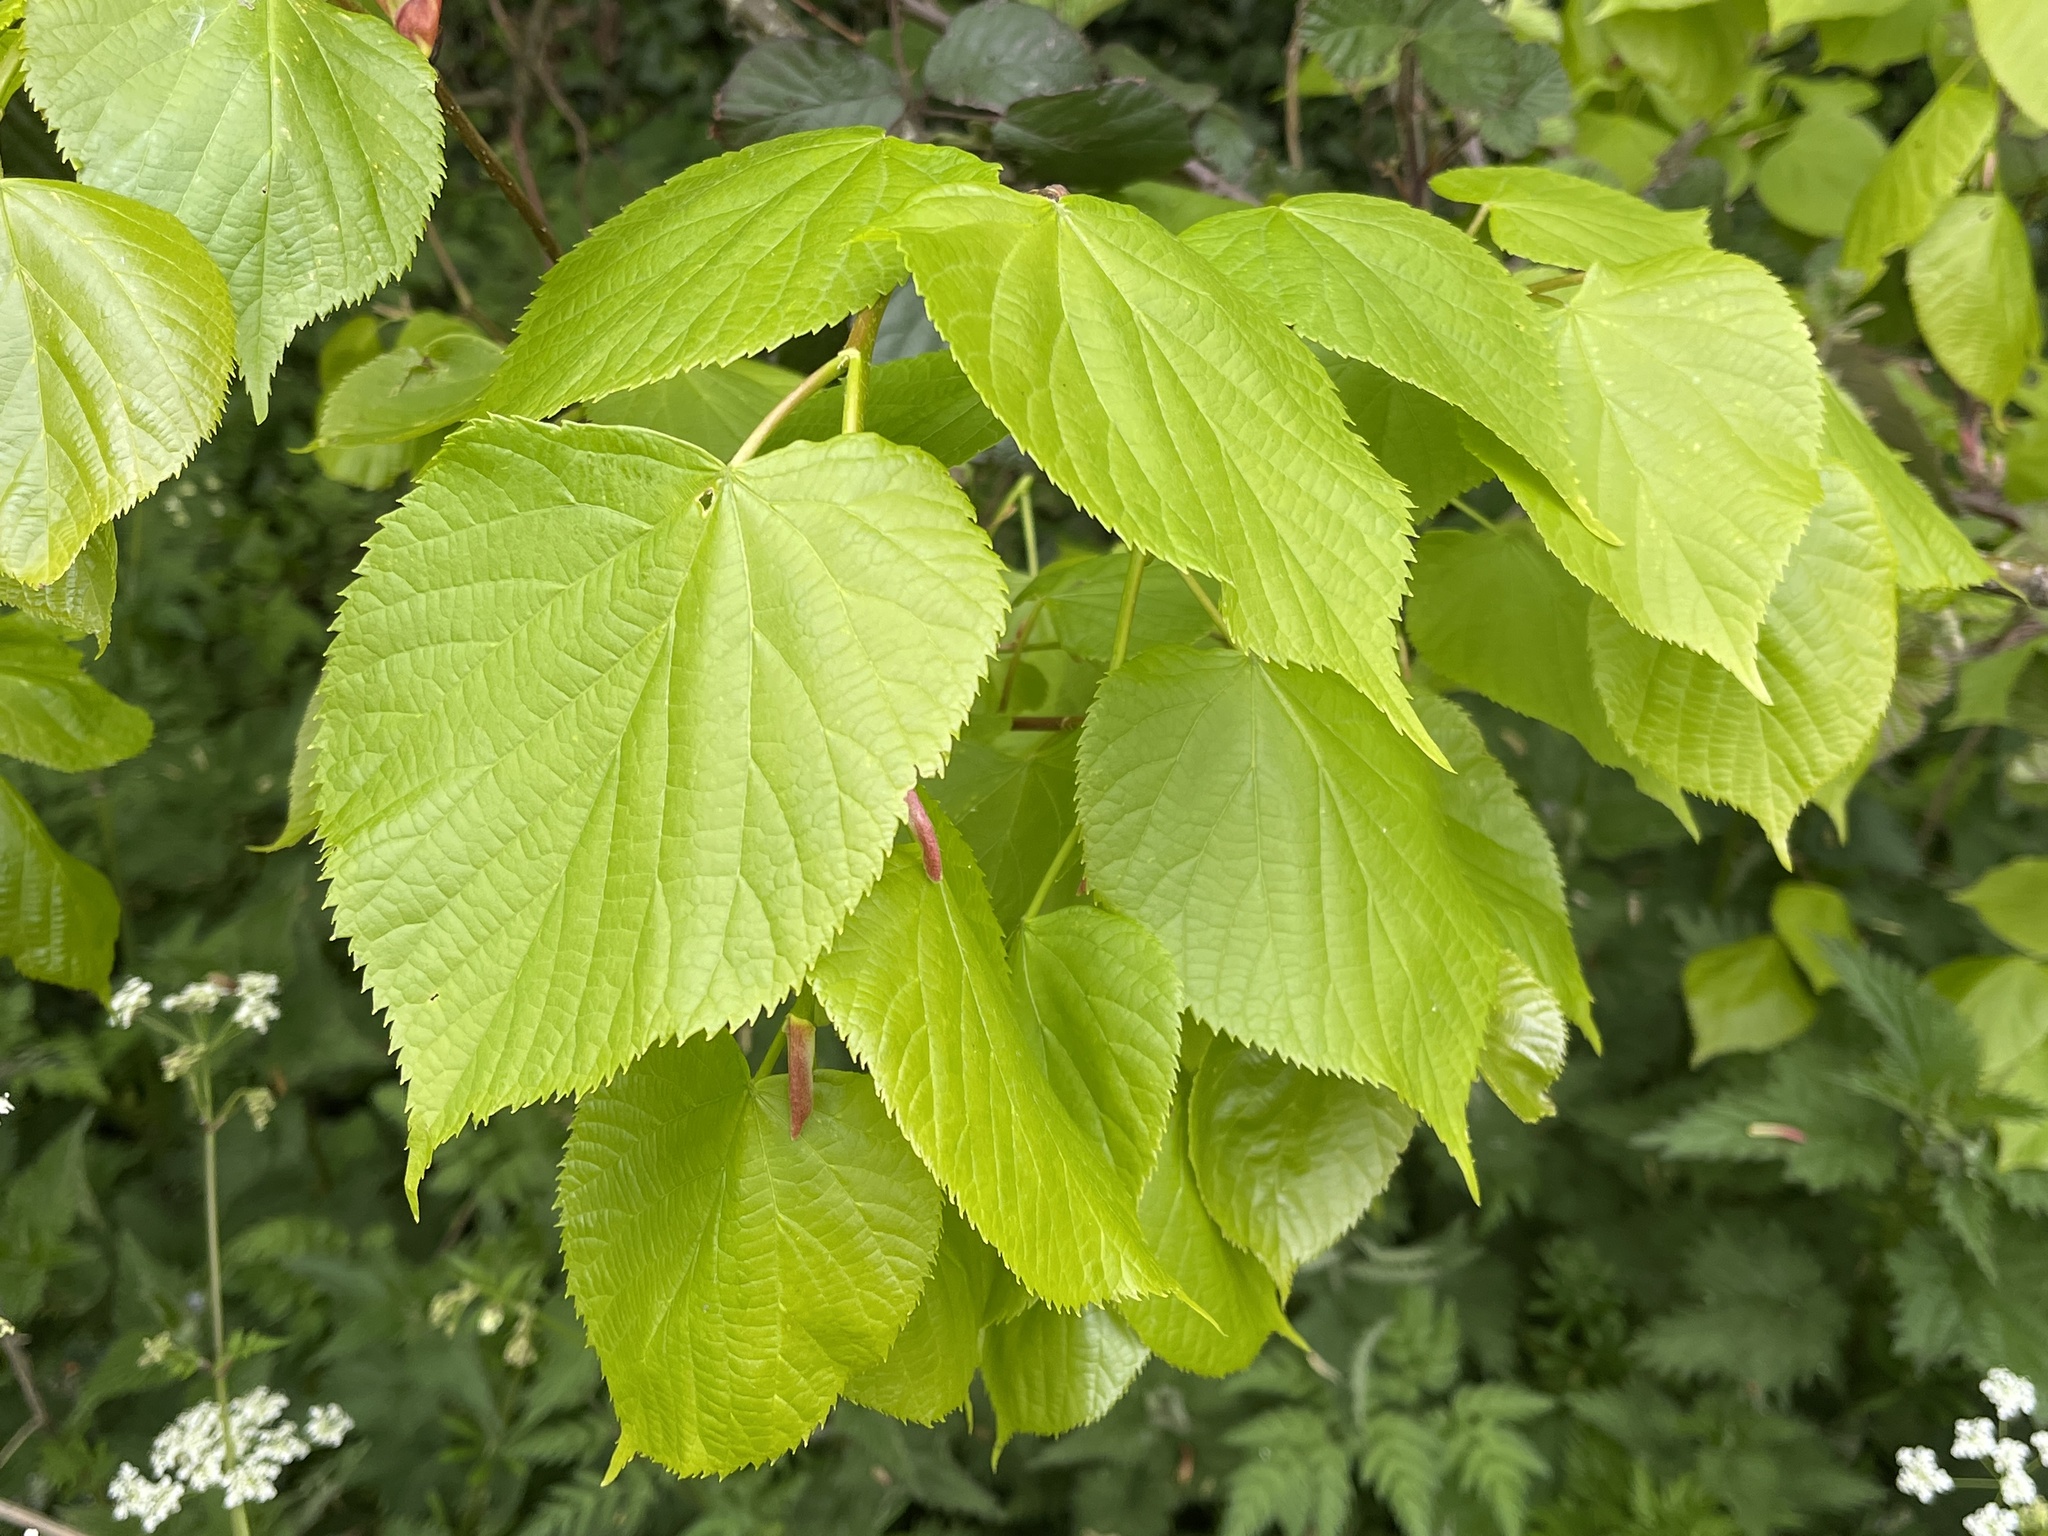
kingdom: Plantae
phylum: Tracheophyta
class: Magnoliopsida
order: Malvales
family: Malvaceae
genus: Tilia
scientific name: Tilia europaea
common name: European linden
